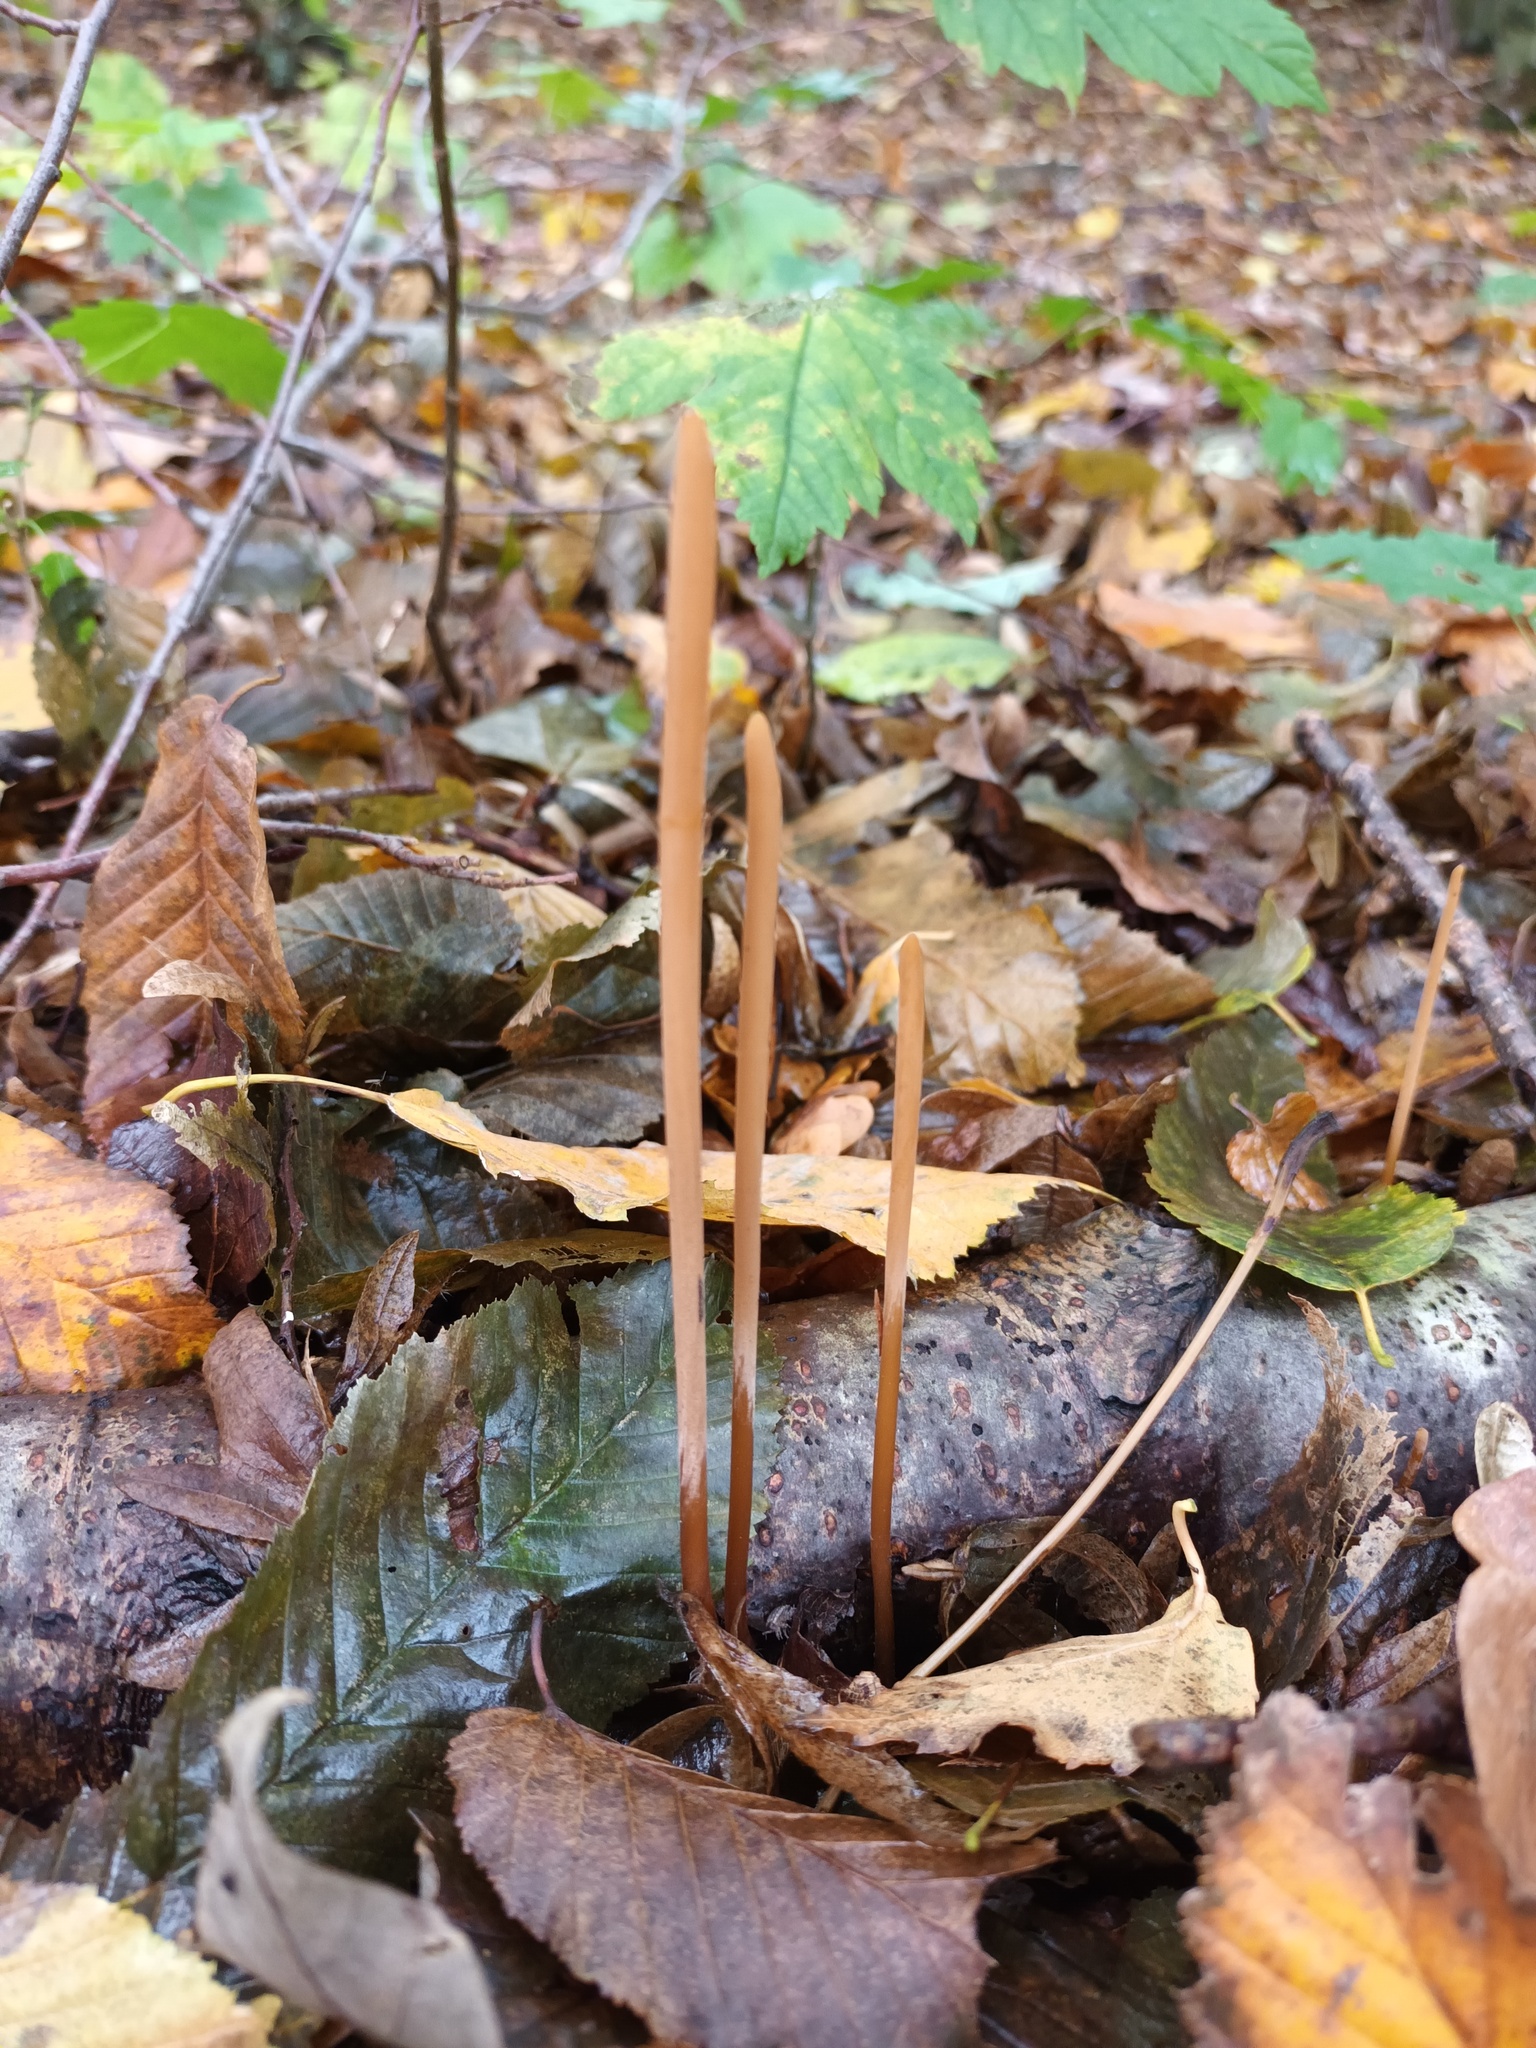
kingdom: Fungi
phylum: Basidiomycota
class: Agaricomycetes
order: Agaricales
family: Typhulaceae
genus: Typhula
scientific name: Typhula fistulosa
